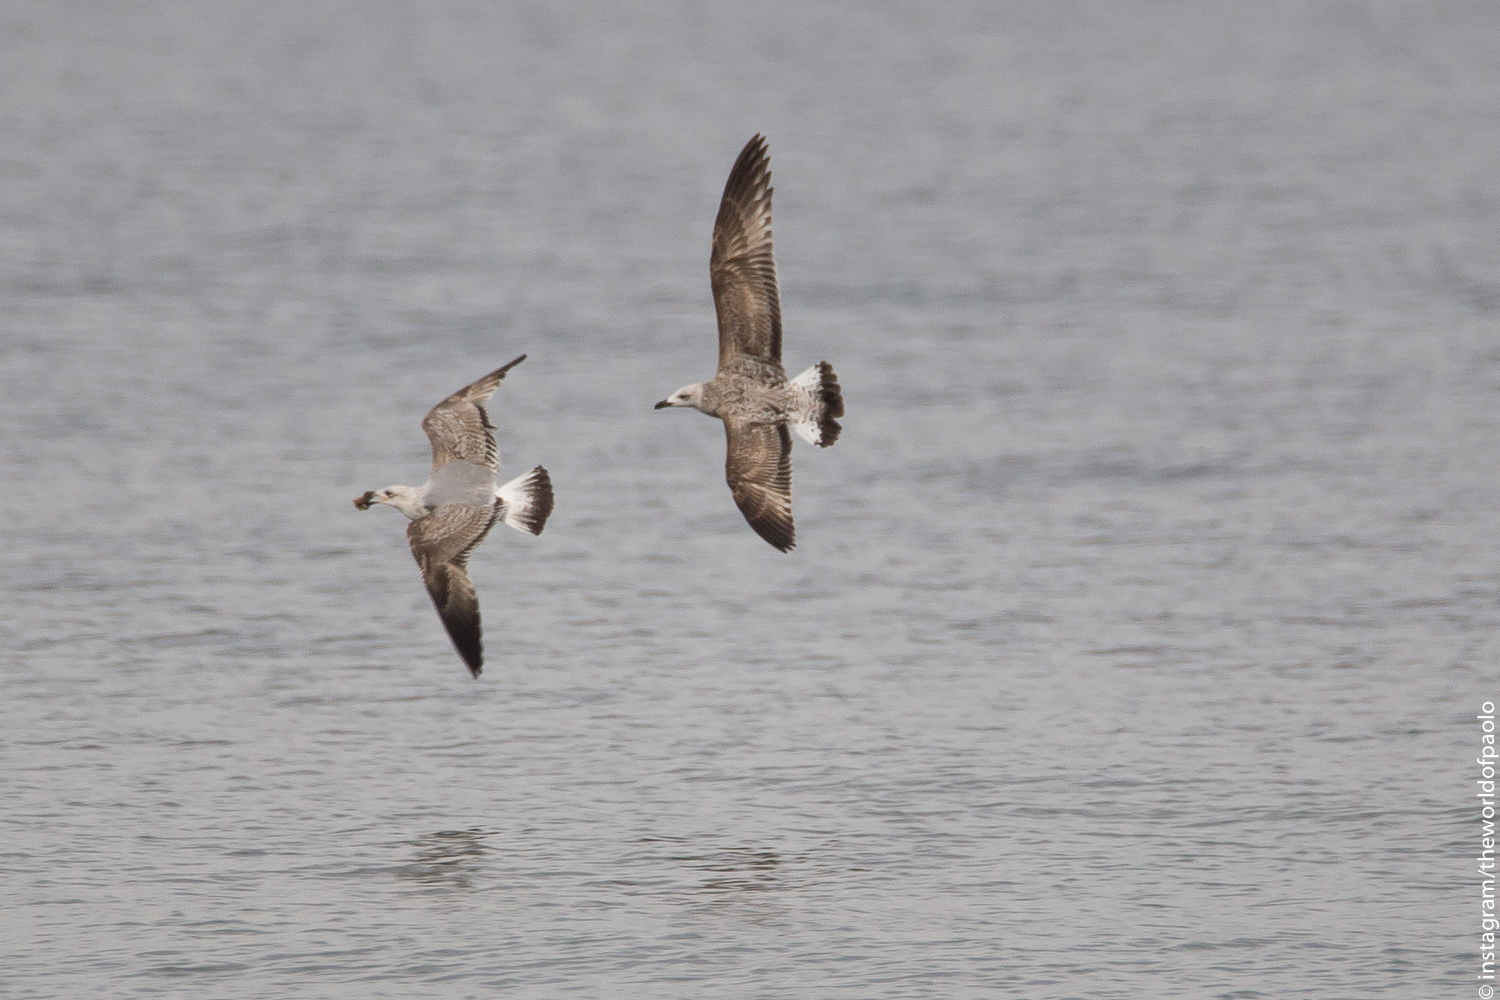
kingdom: Animalia
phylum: Chordata
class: Aves
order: Charadriiformes
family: Laridae
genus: Larus
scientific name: Larus michahellis
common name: Yellow-legged gull
